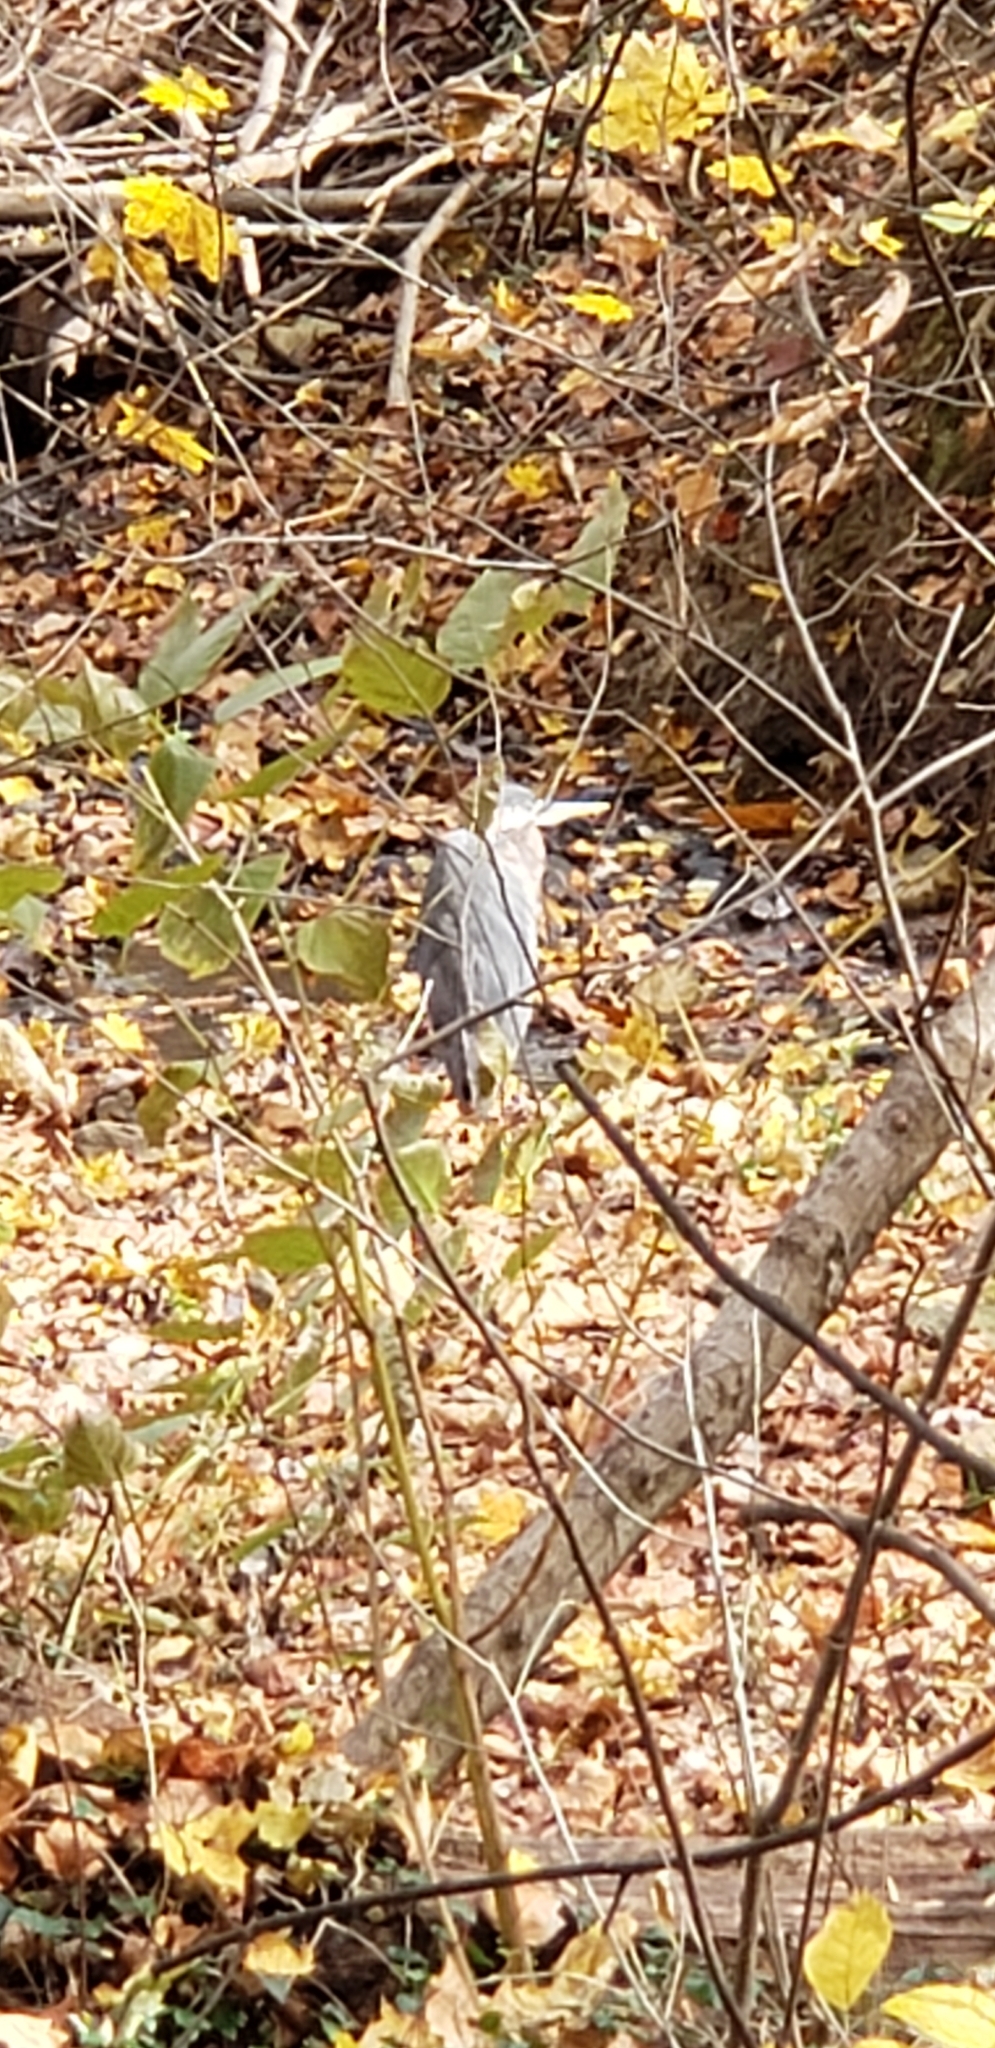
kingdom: Animalia
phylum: Chordata
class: Aves
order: Pelecaniformes
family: Ardeidae
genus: Ardea
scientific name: Ardea herodias
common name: Great blue heron
